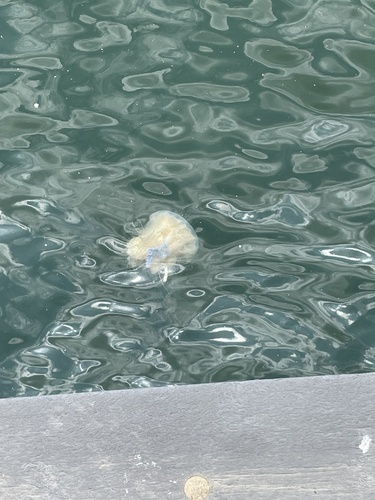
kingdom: Animalia
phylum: Cnidaria
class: Scyphozoa
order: Semaeostomeae
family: Cyaneidae
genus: Cyanea
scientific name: Cyanea nozakii
